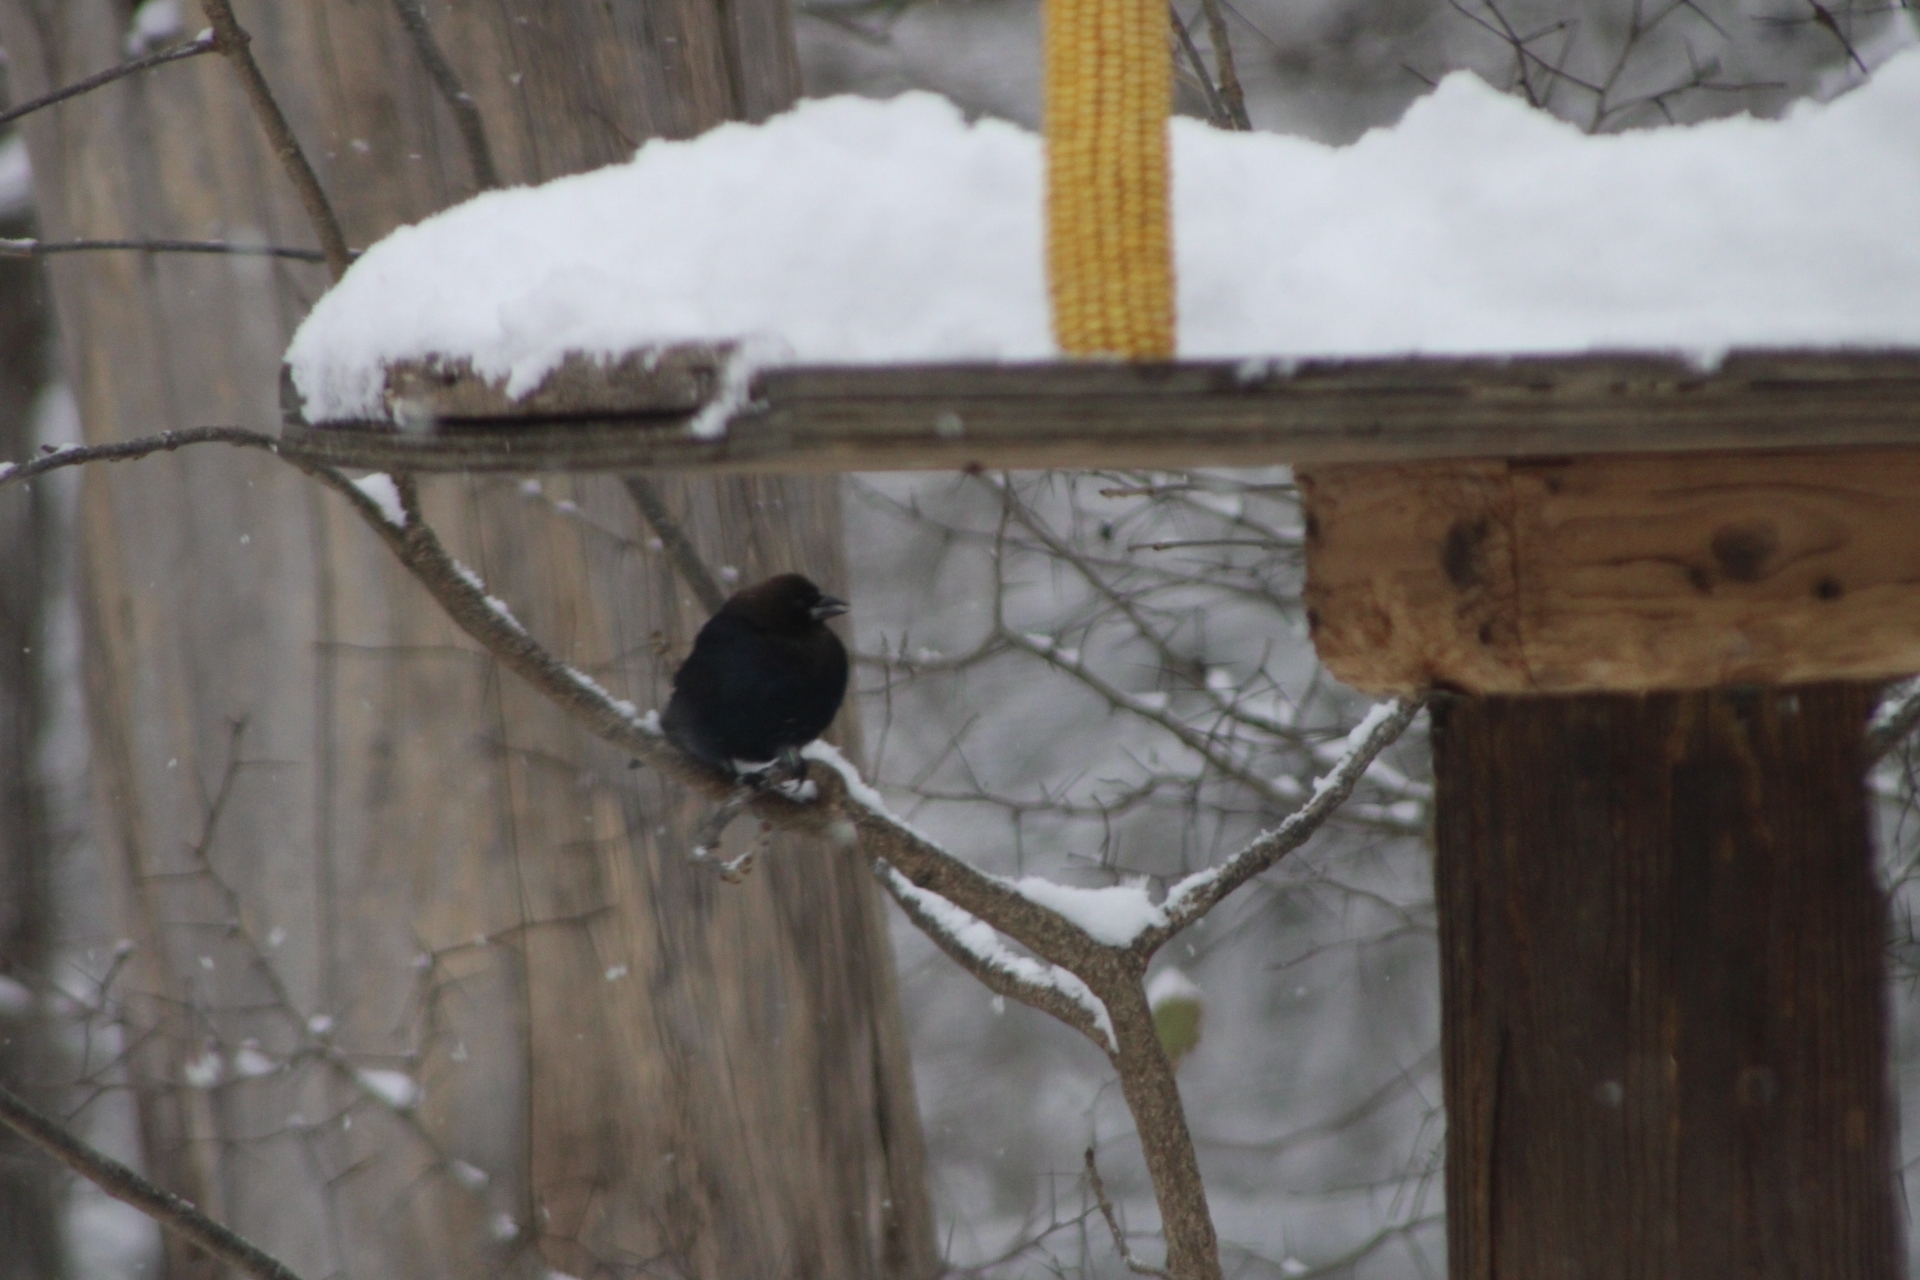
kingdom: Animalia
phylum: Chordata
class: Aves
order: Passeriformes
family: Icteridae
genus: Molothrus
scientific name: Molothrus ater
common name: Brown-headed cowbird
